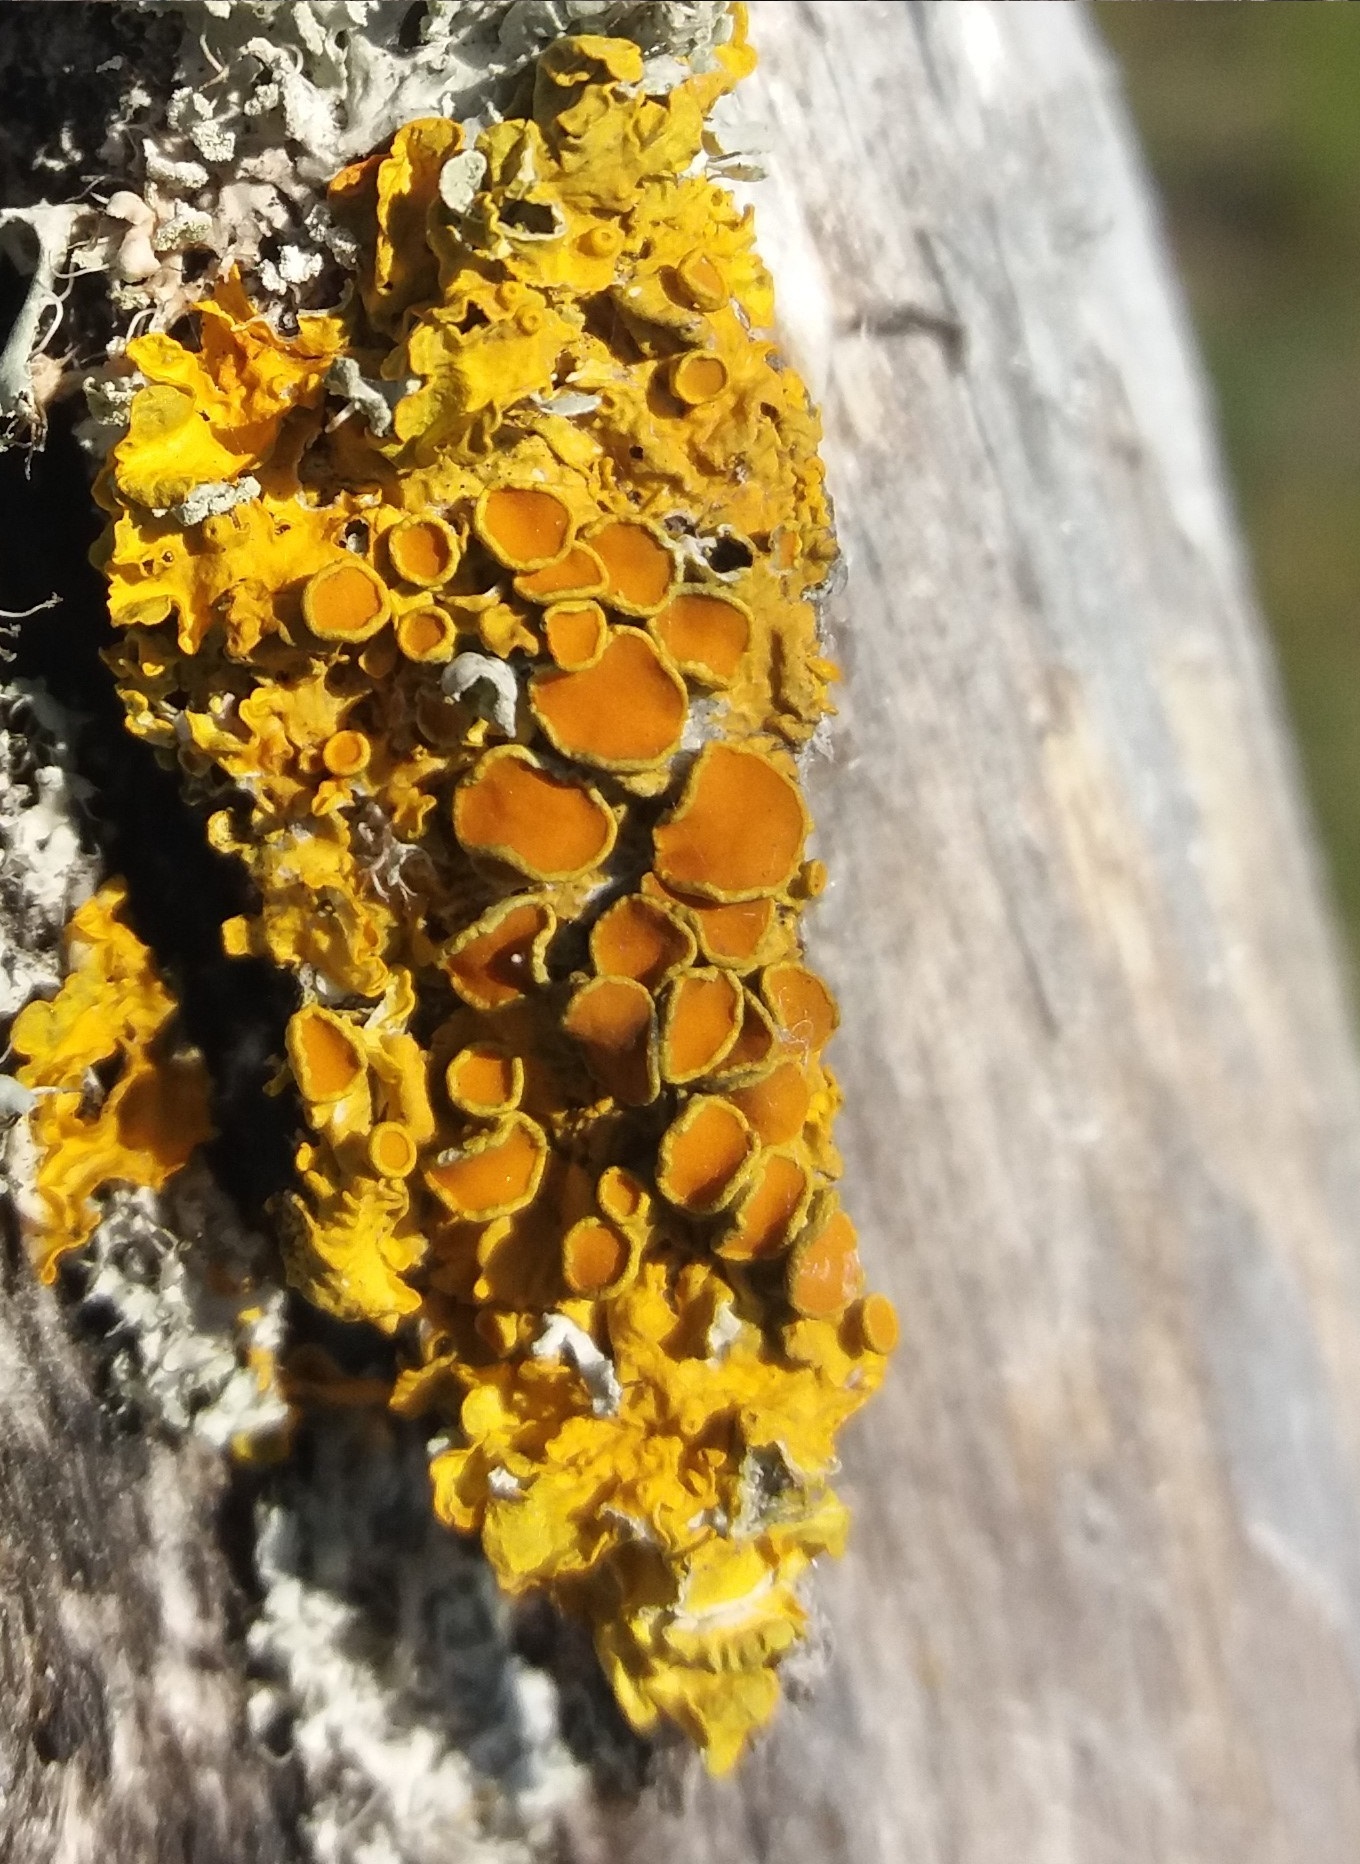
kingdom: Fungi
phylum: Ascomycota
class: Lecanoromycetes
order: Teloschistales
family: Teloschistaceae
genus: Xanthoria
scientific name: Xanthoria parietina
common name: Common orange lichen
